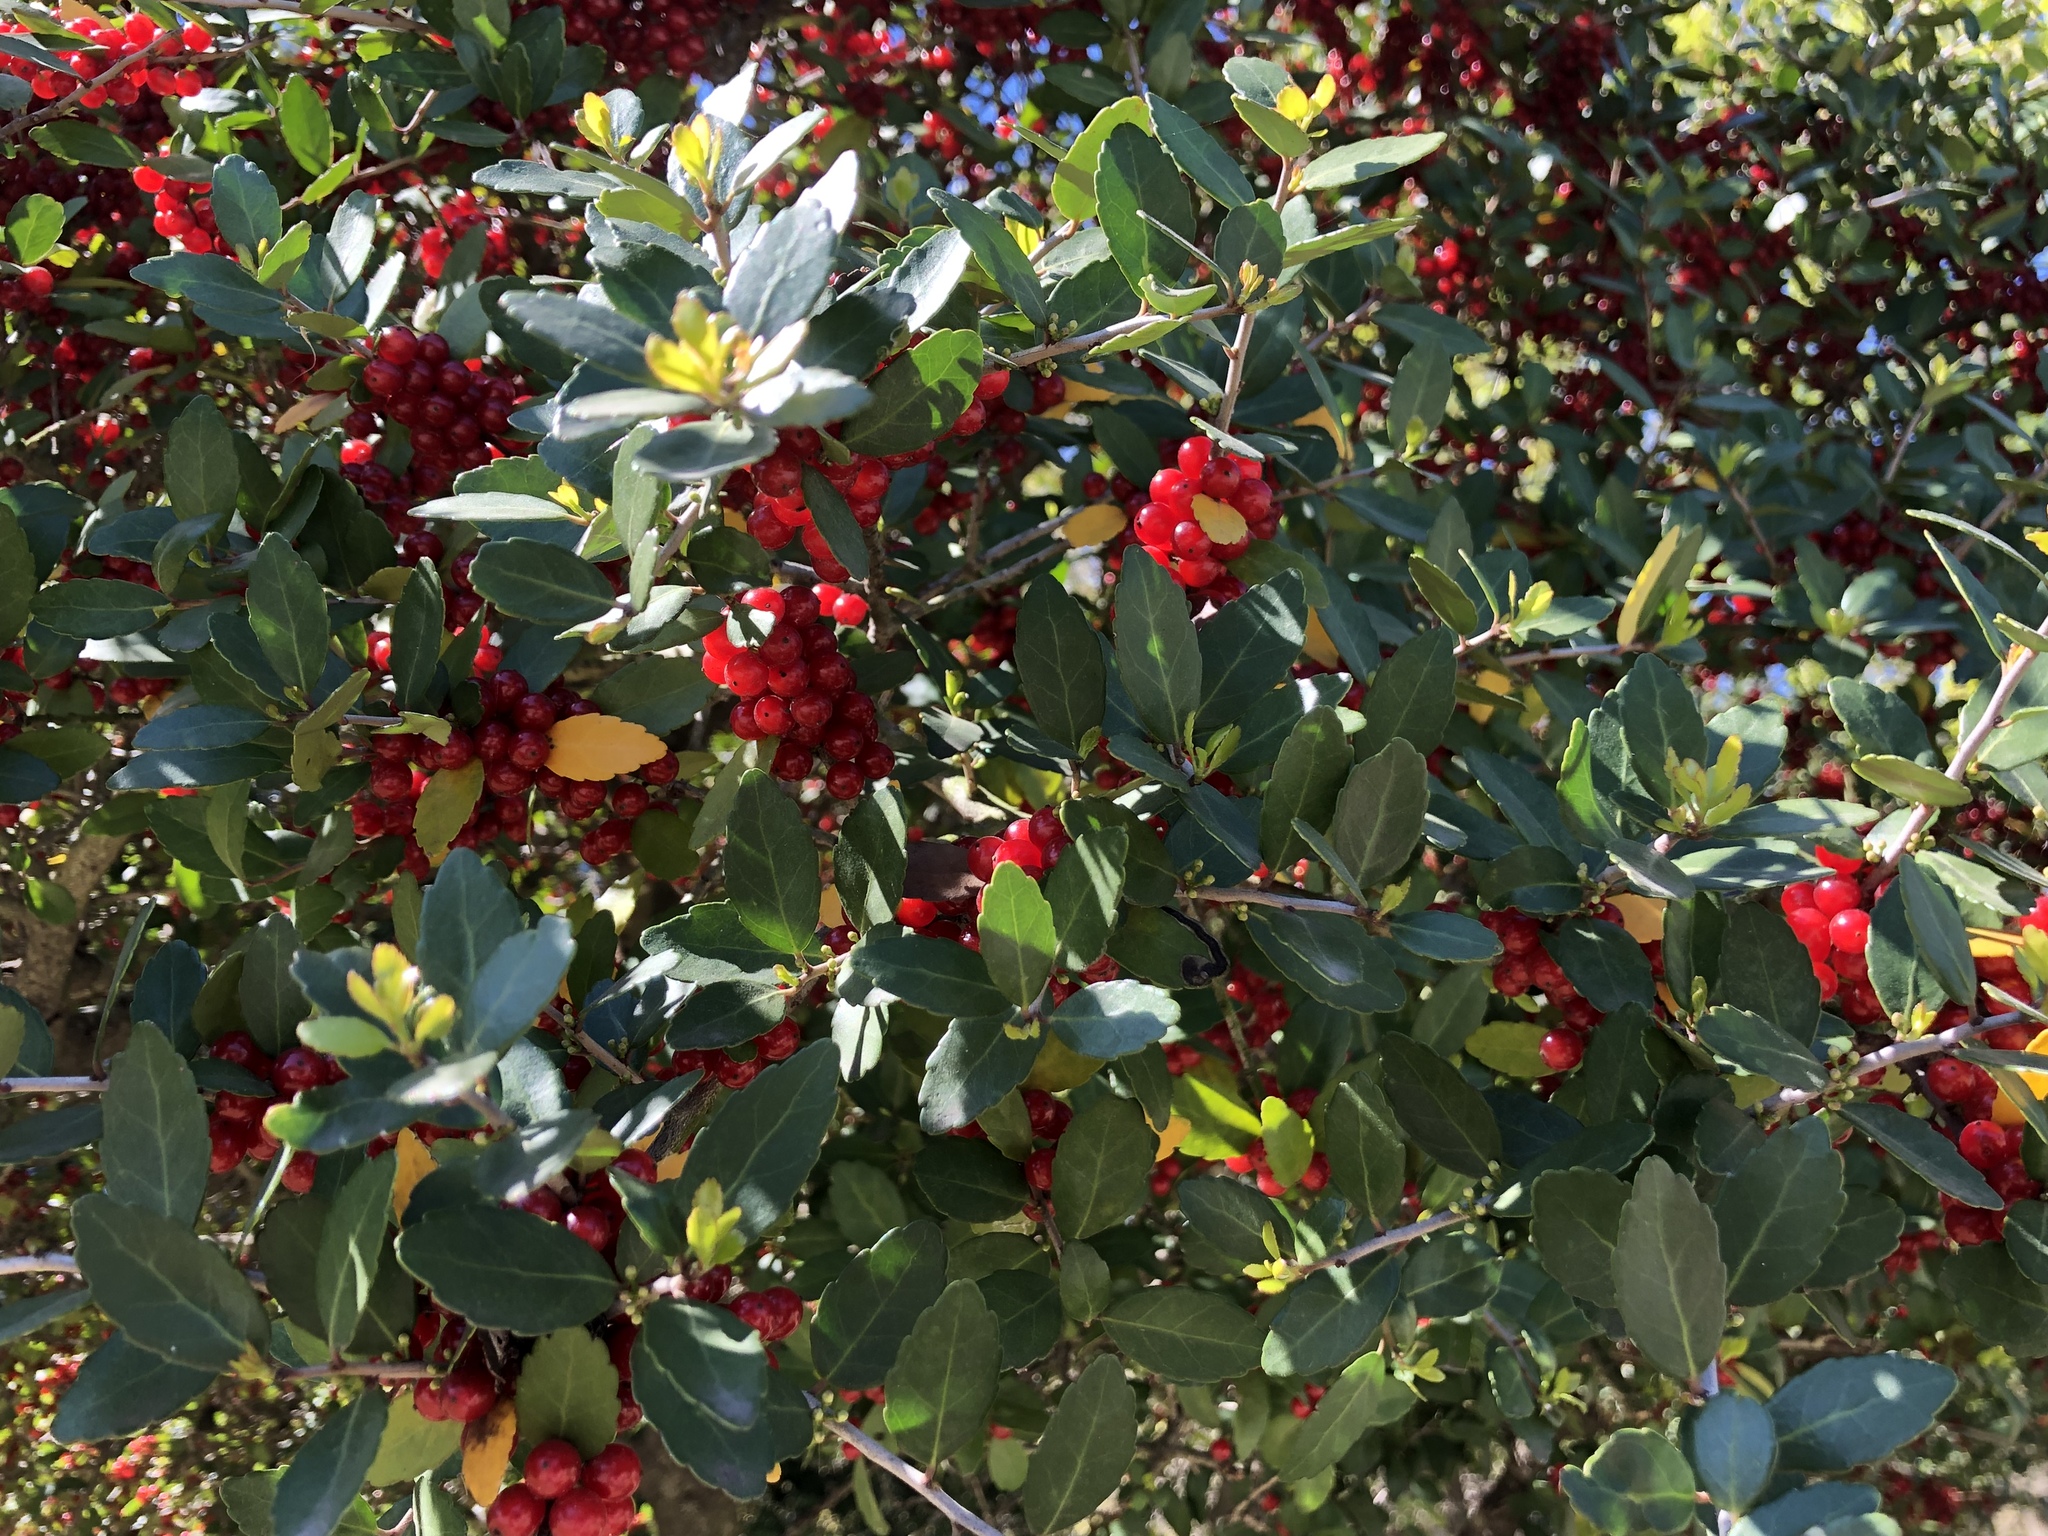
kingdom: Plantae
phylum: Tracheophyta
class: Magnoliopsida
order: Aquifoliales
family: Aquifoliaceae
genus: Ilex
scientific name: Ilex vomitoria
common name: Yaupon holly
